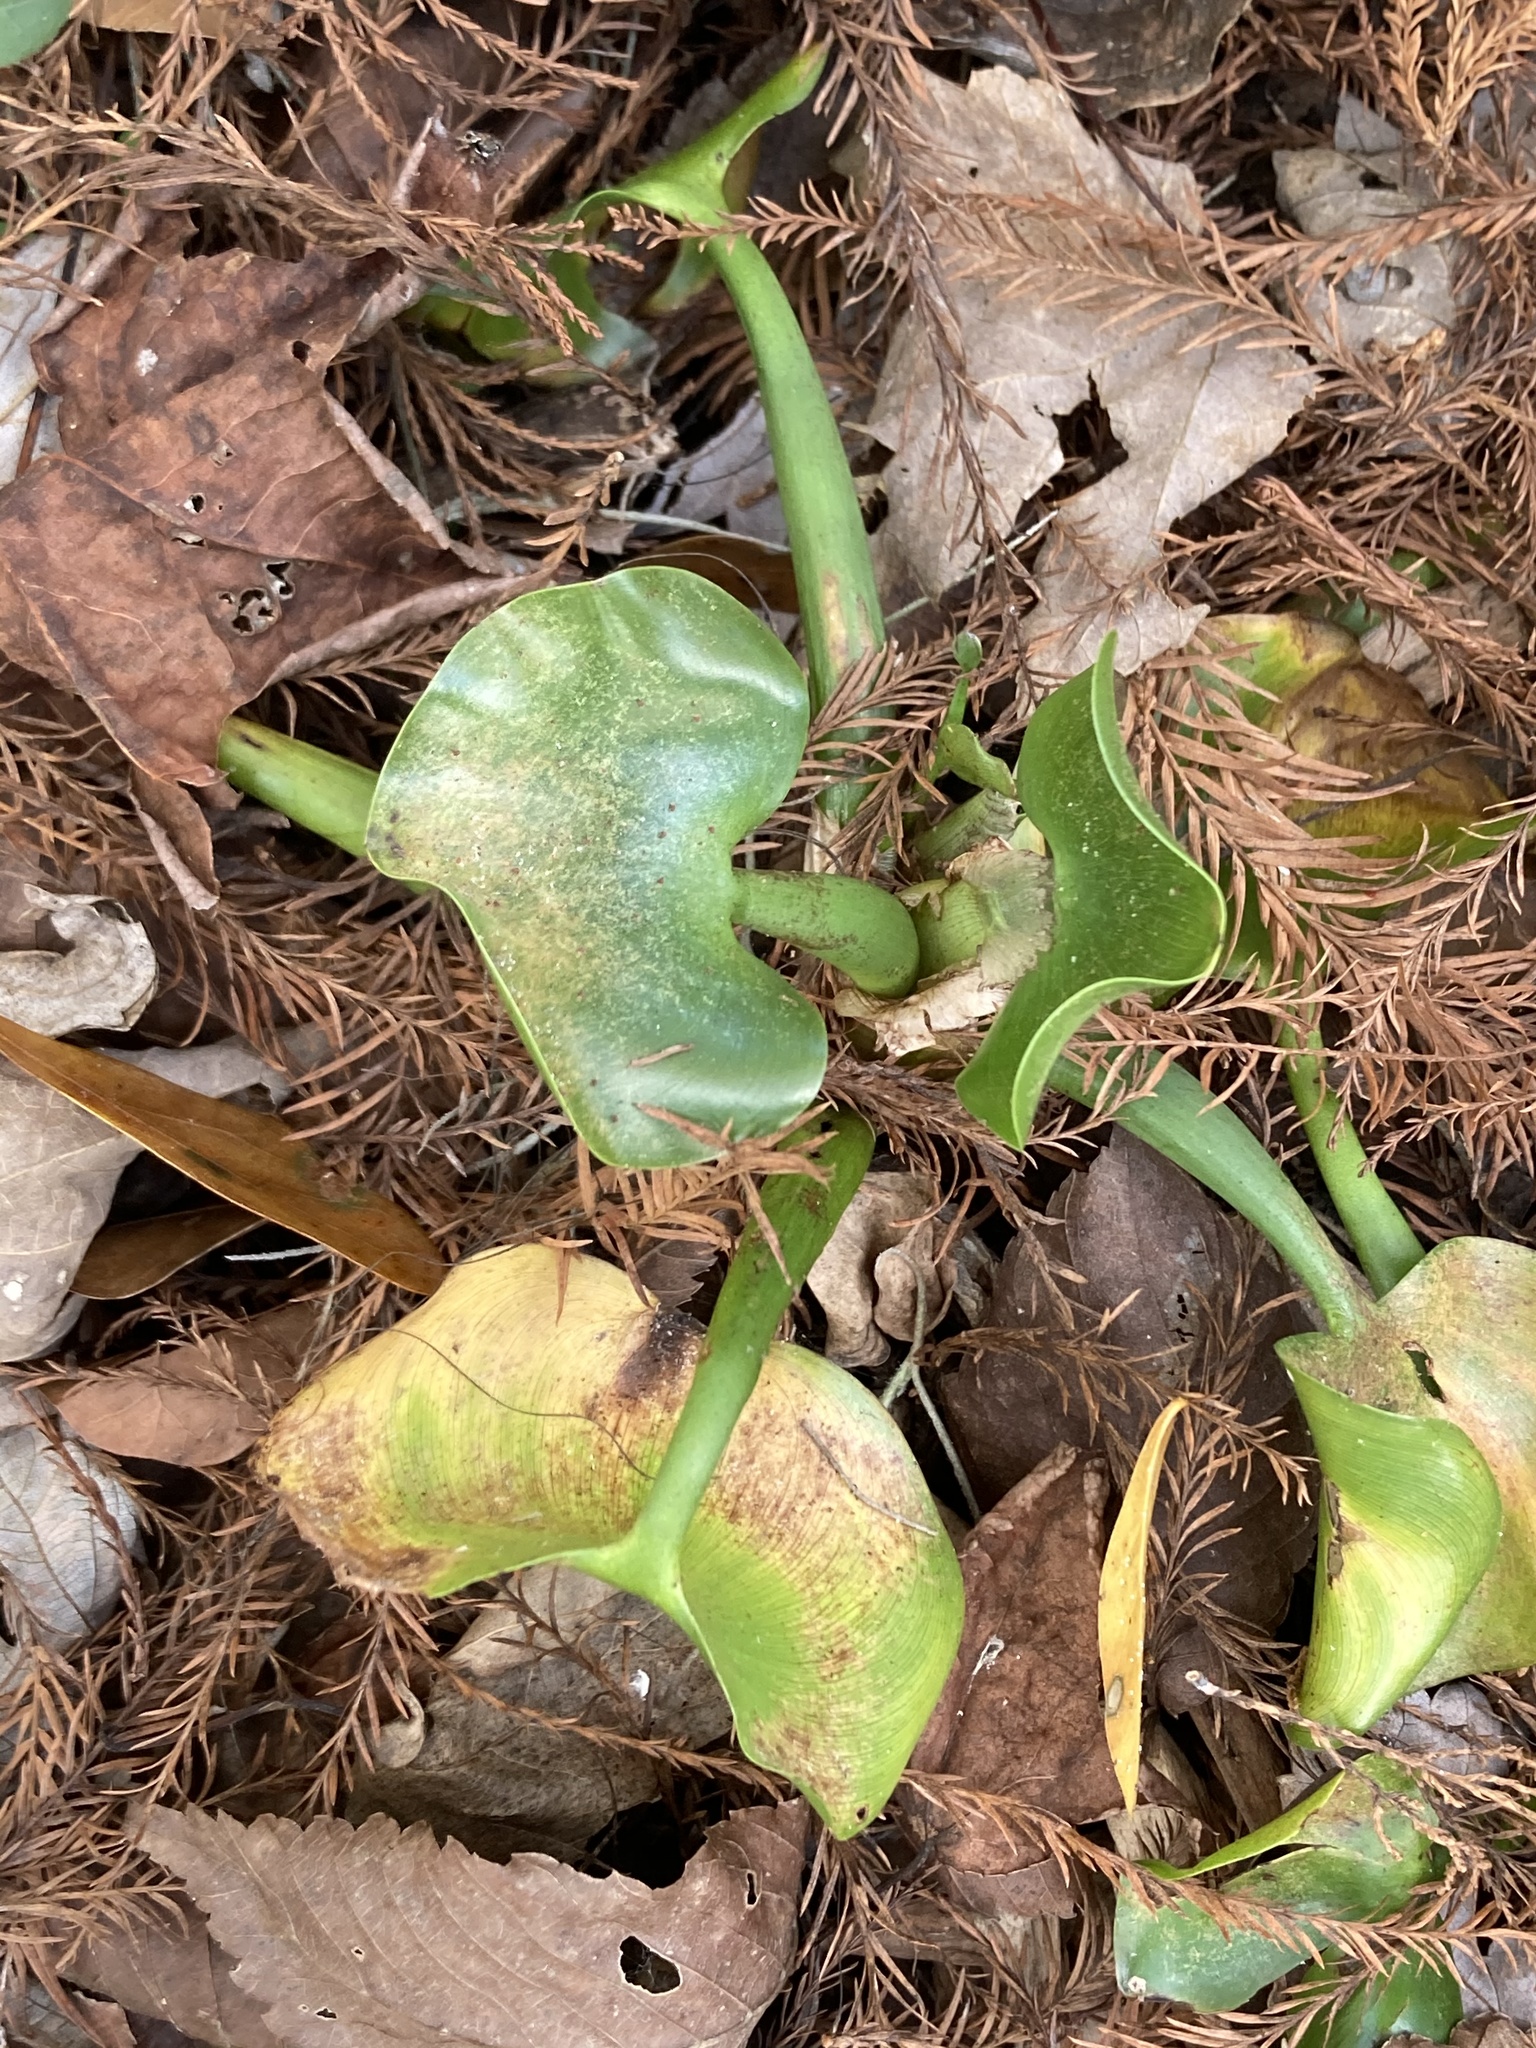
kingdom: Plantae
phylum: Tracheophyta
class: Liliopsida
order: Commelinales
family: Pontederiaceae
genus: Pontederia
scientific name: Pontederia crassipes
